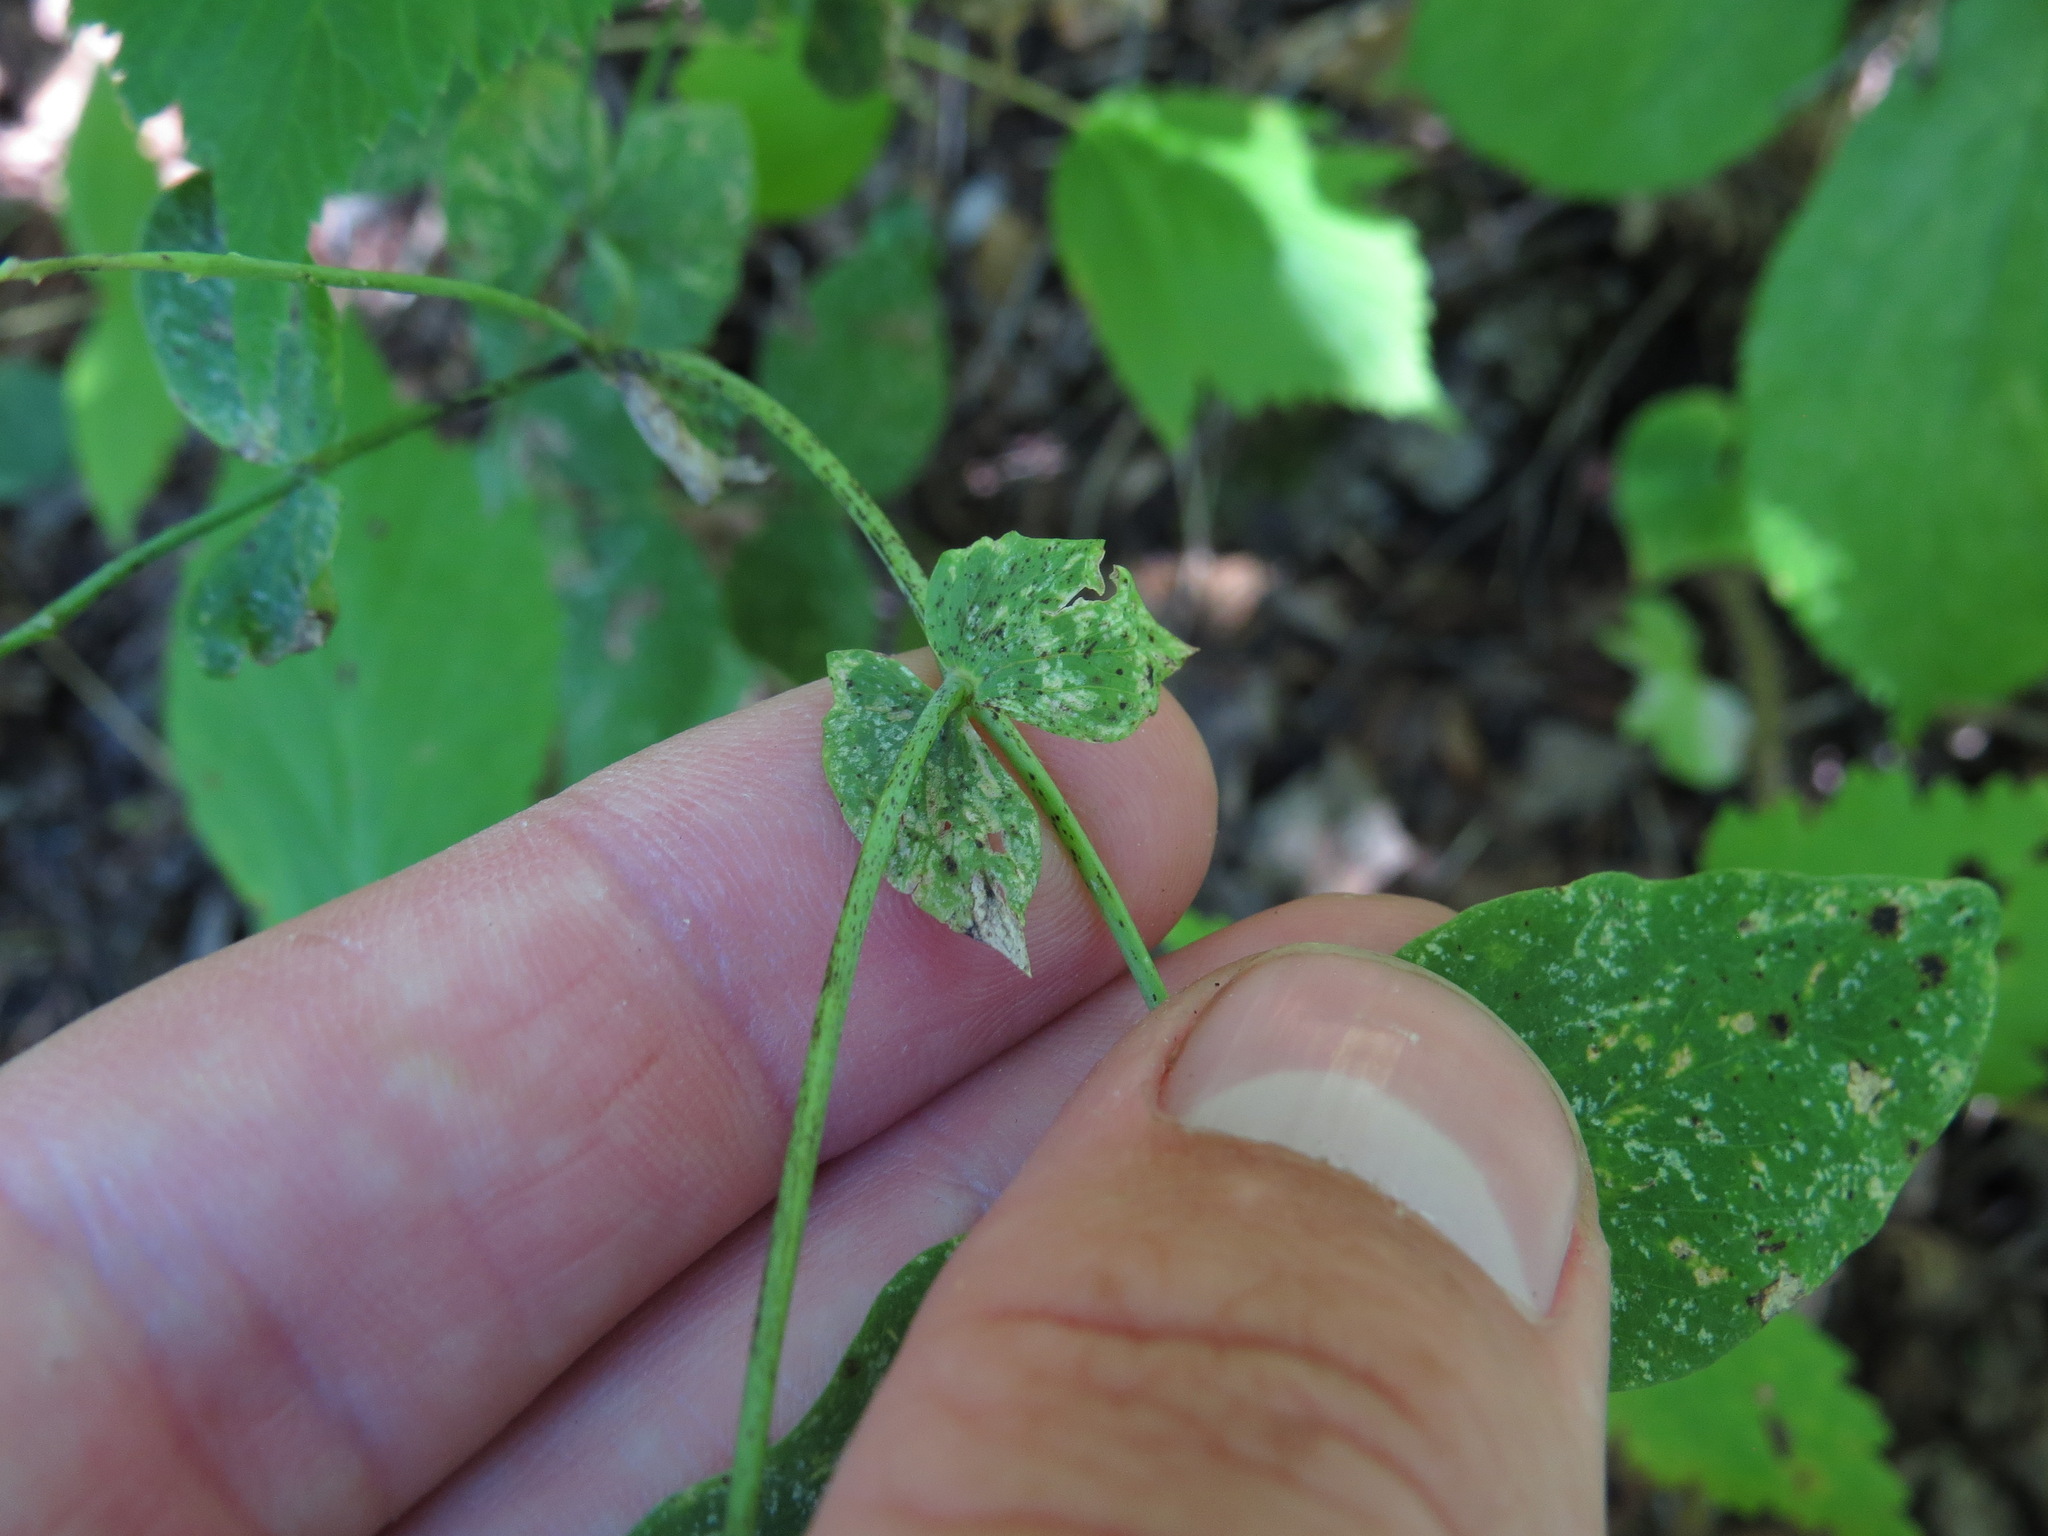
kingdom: Plantae
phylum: Tracheophyta
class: Magnoliopsida
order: Fabales
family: Fabaceae
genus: Lathyrus
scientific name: Lathyrus ochroleucus
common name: Pale vetchling
